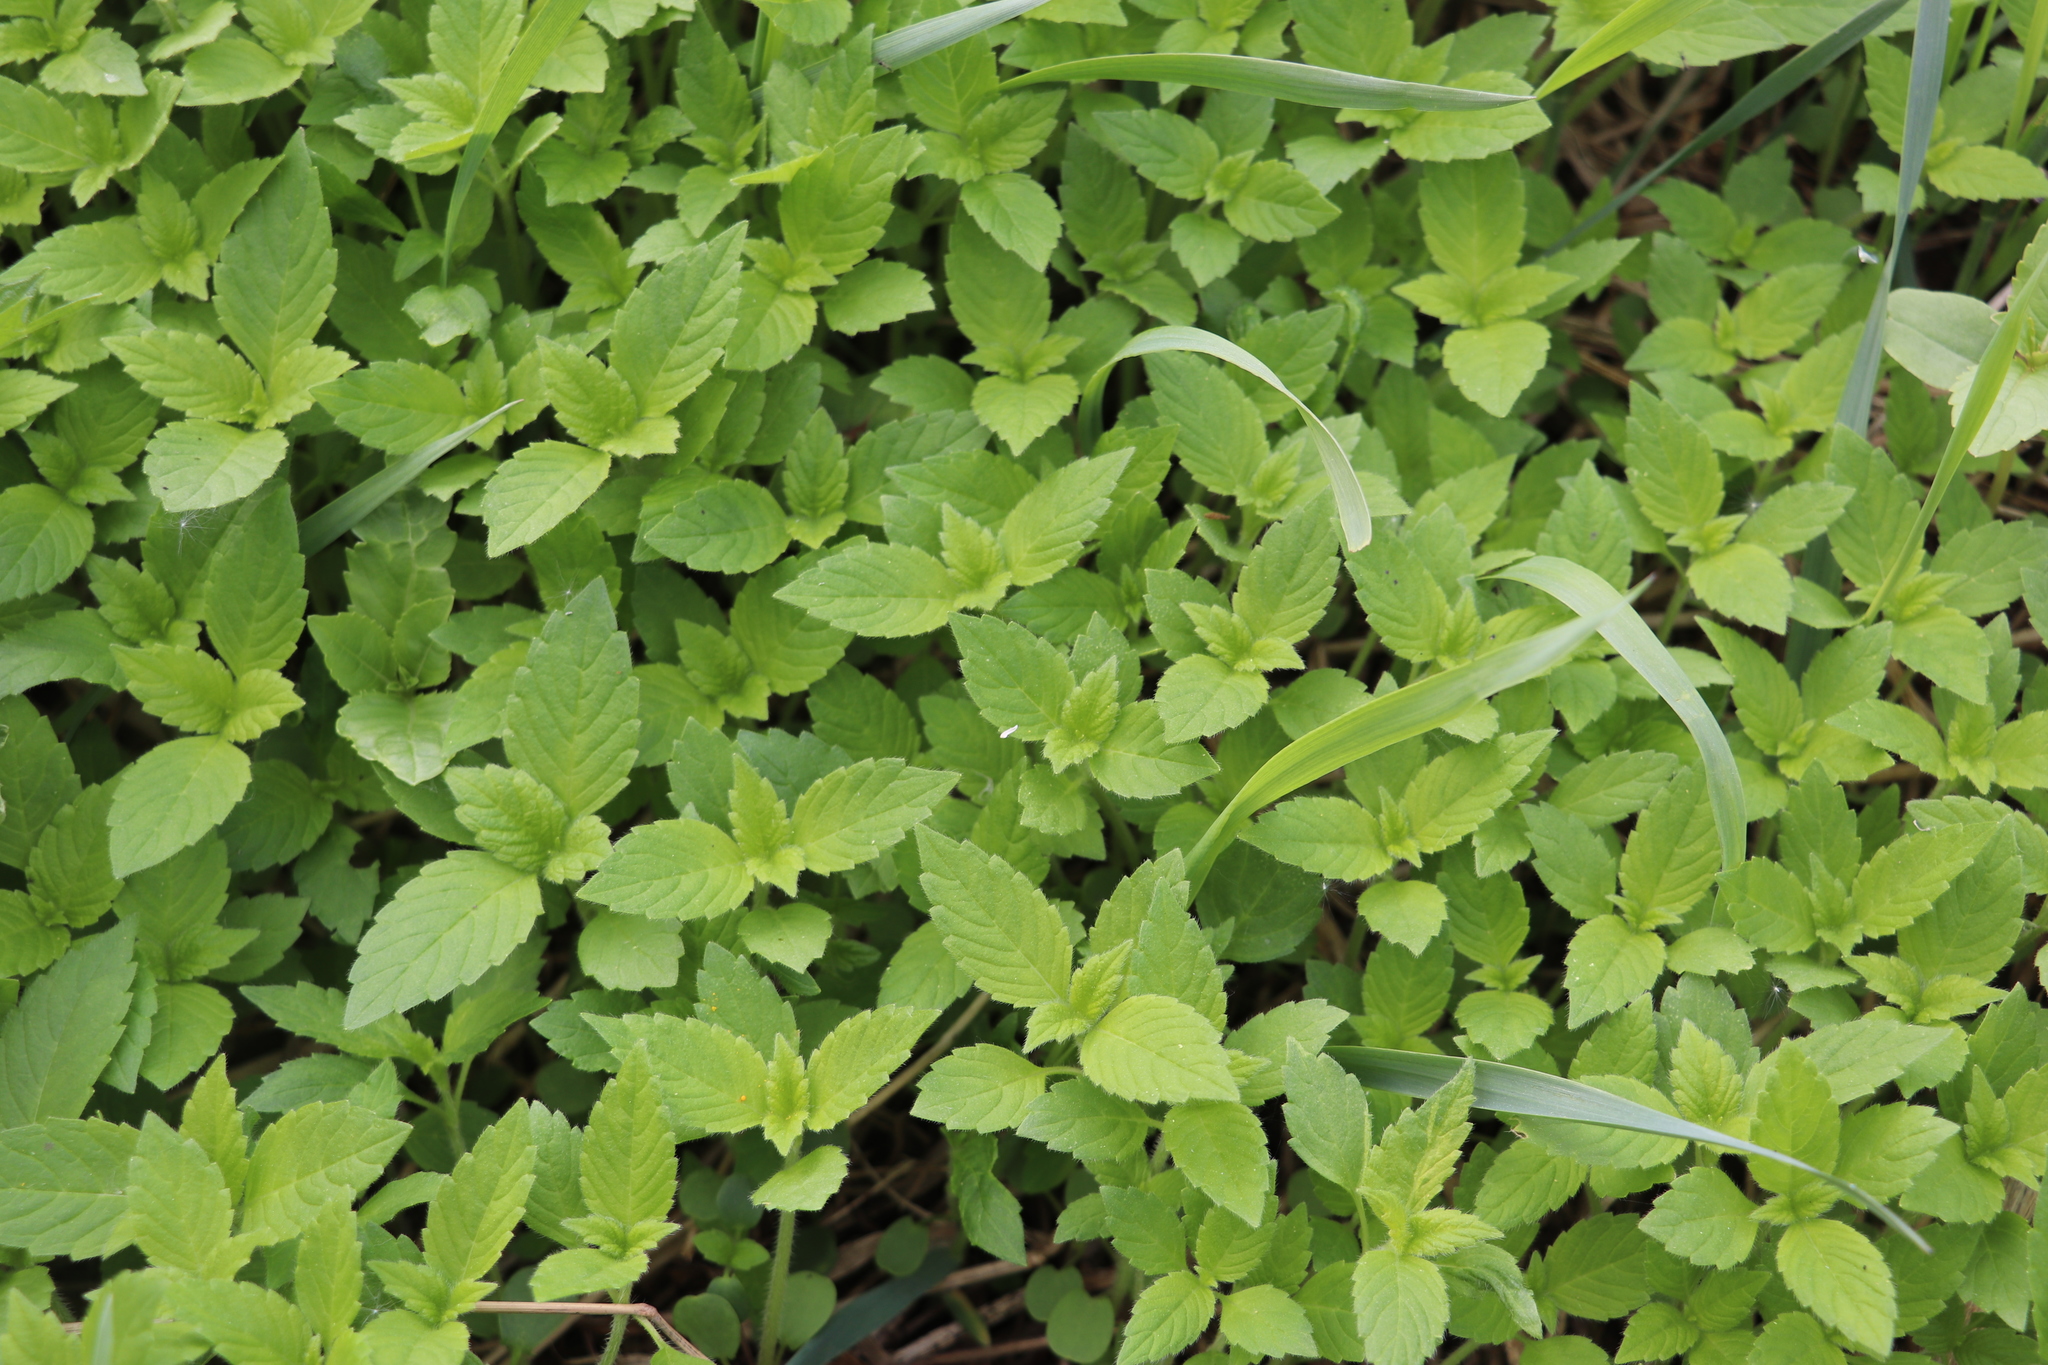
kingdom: Plantae
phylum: Tracheophyta
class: Magnoliopsida
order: Lamiales
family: Lamiaceae
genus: Galeopsis
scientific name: Galeopsis bifida
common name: Bifid hemp-nettle
